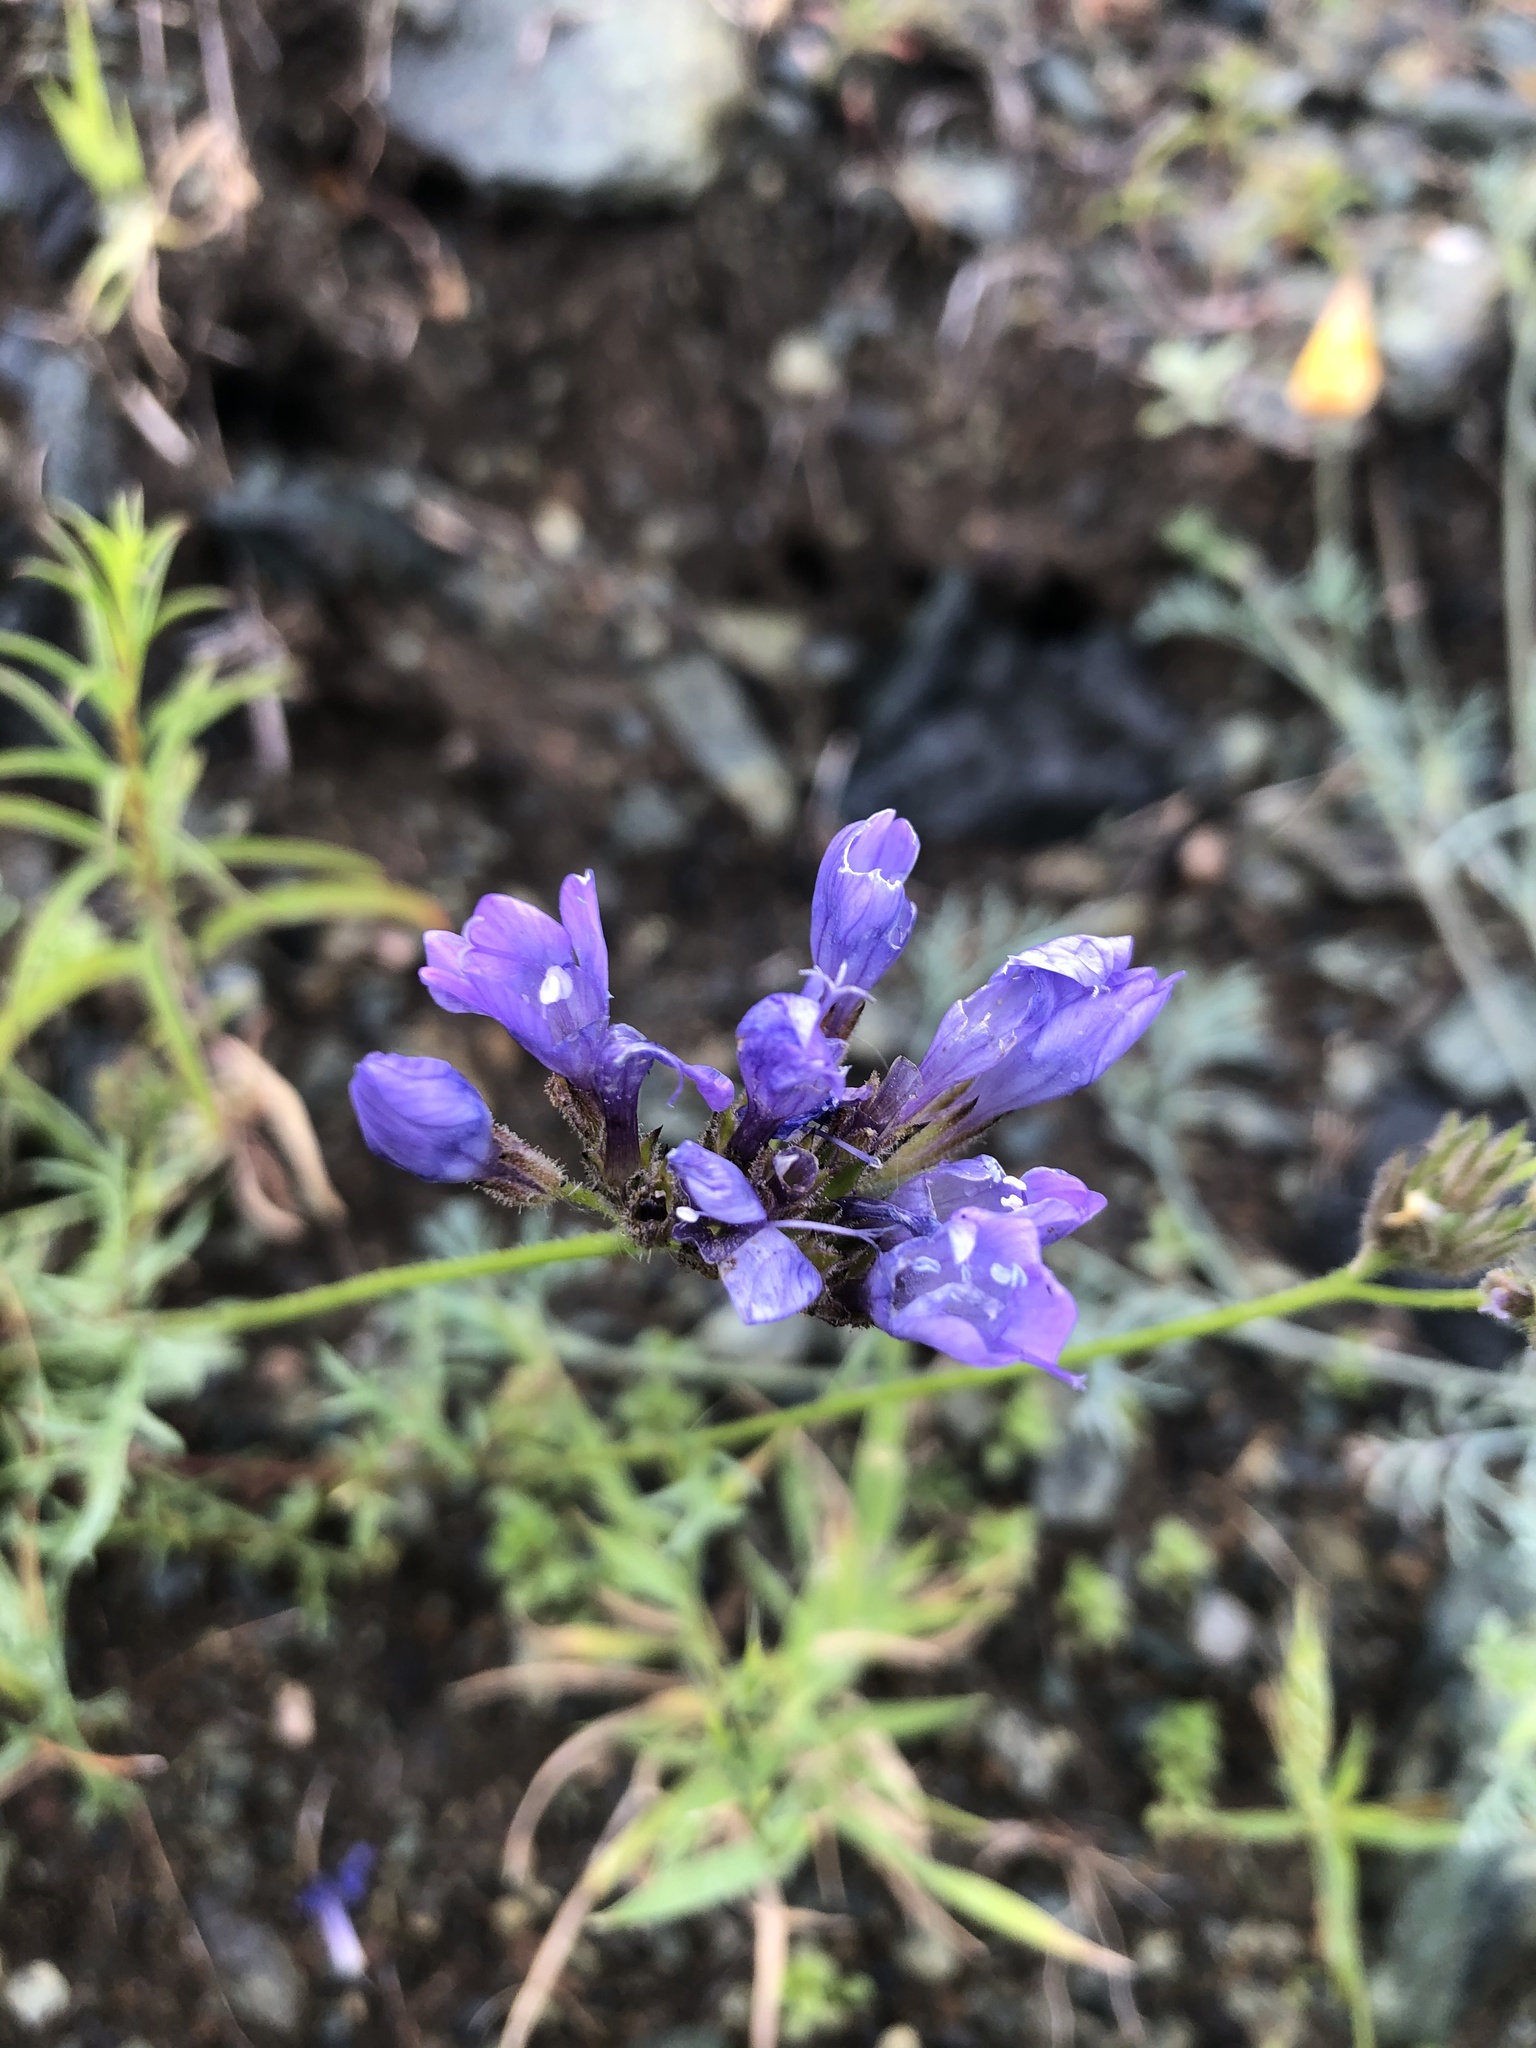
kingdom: Plantae
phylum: Tracheophyta
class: Magnoliopsida
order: Ericales
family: Polemoniaceae
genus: Gilia
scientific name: Gilia achilleifolia
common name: California gily-flower
